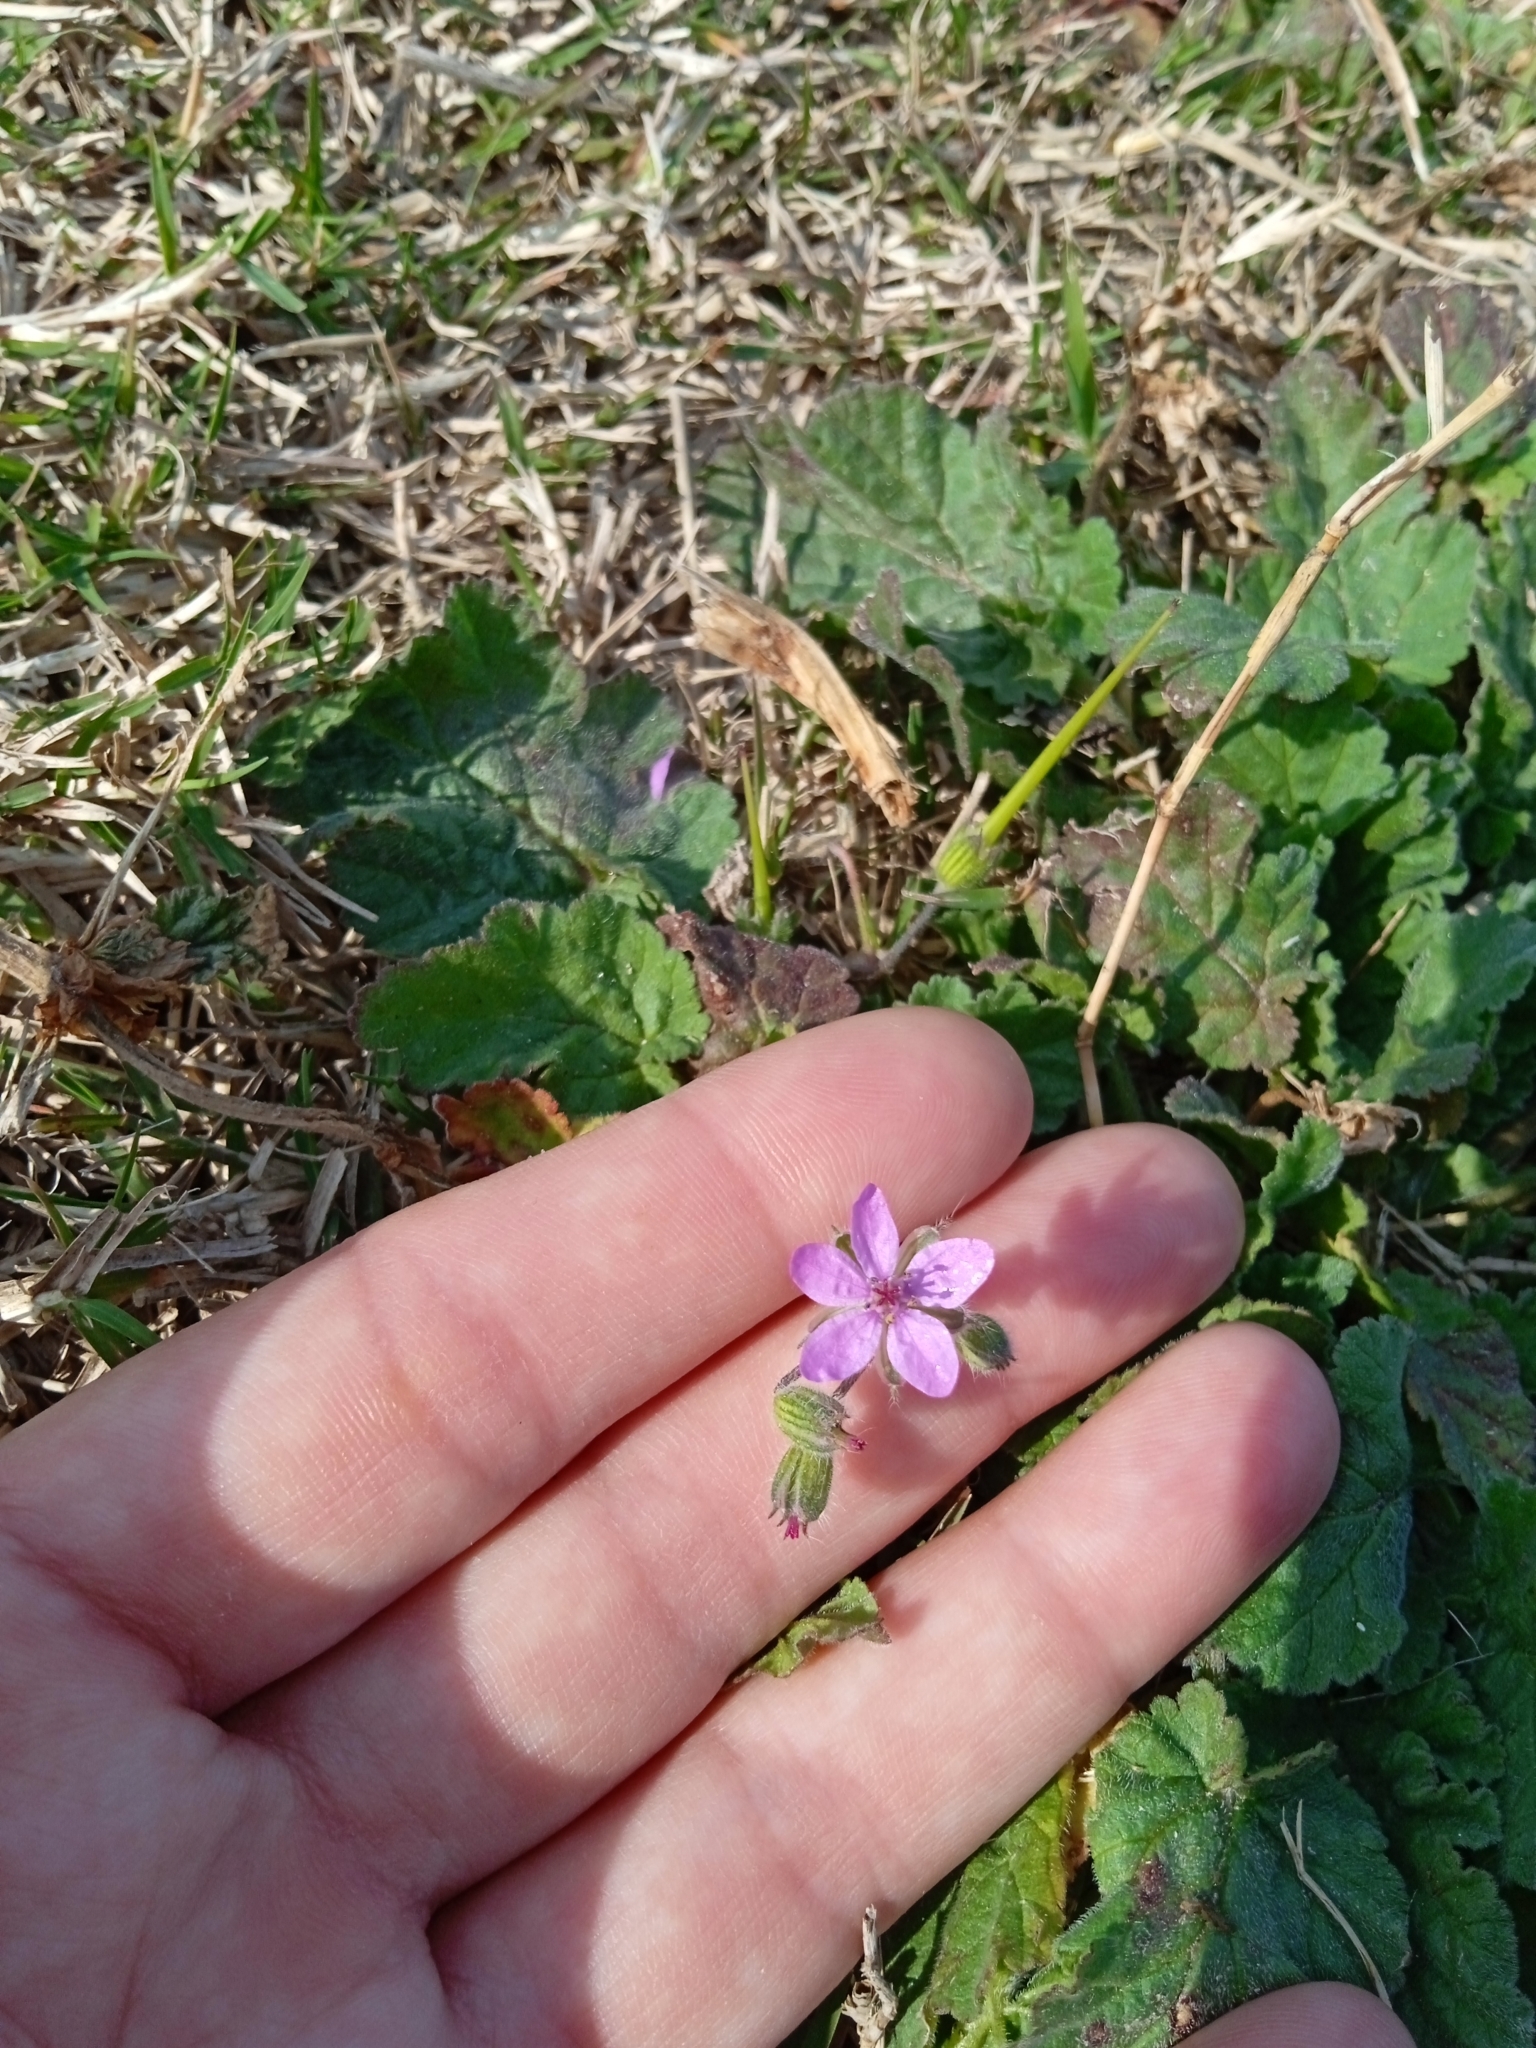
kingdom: Plantae
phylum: Tracheophyta
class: Magnoliopsida
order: Geraniales
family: Geraniaceae
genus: Erodium
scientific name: Erodium malacoides
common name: Soft stork's-bill
